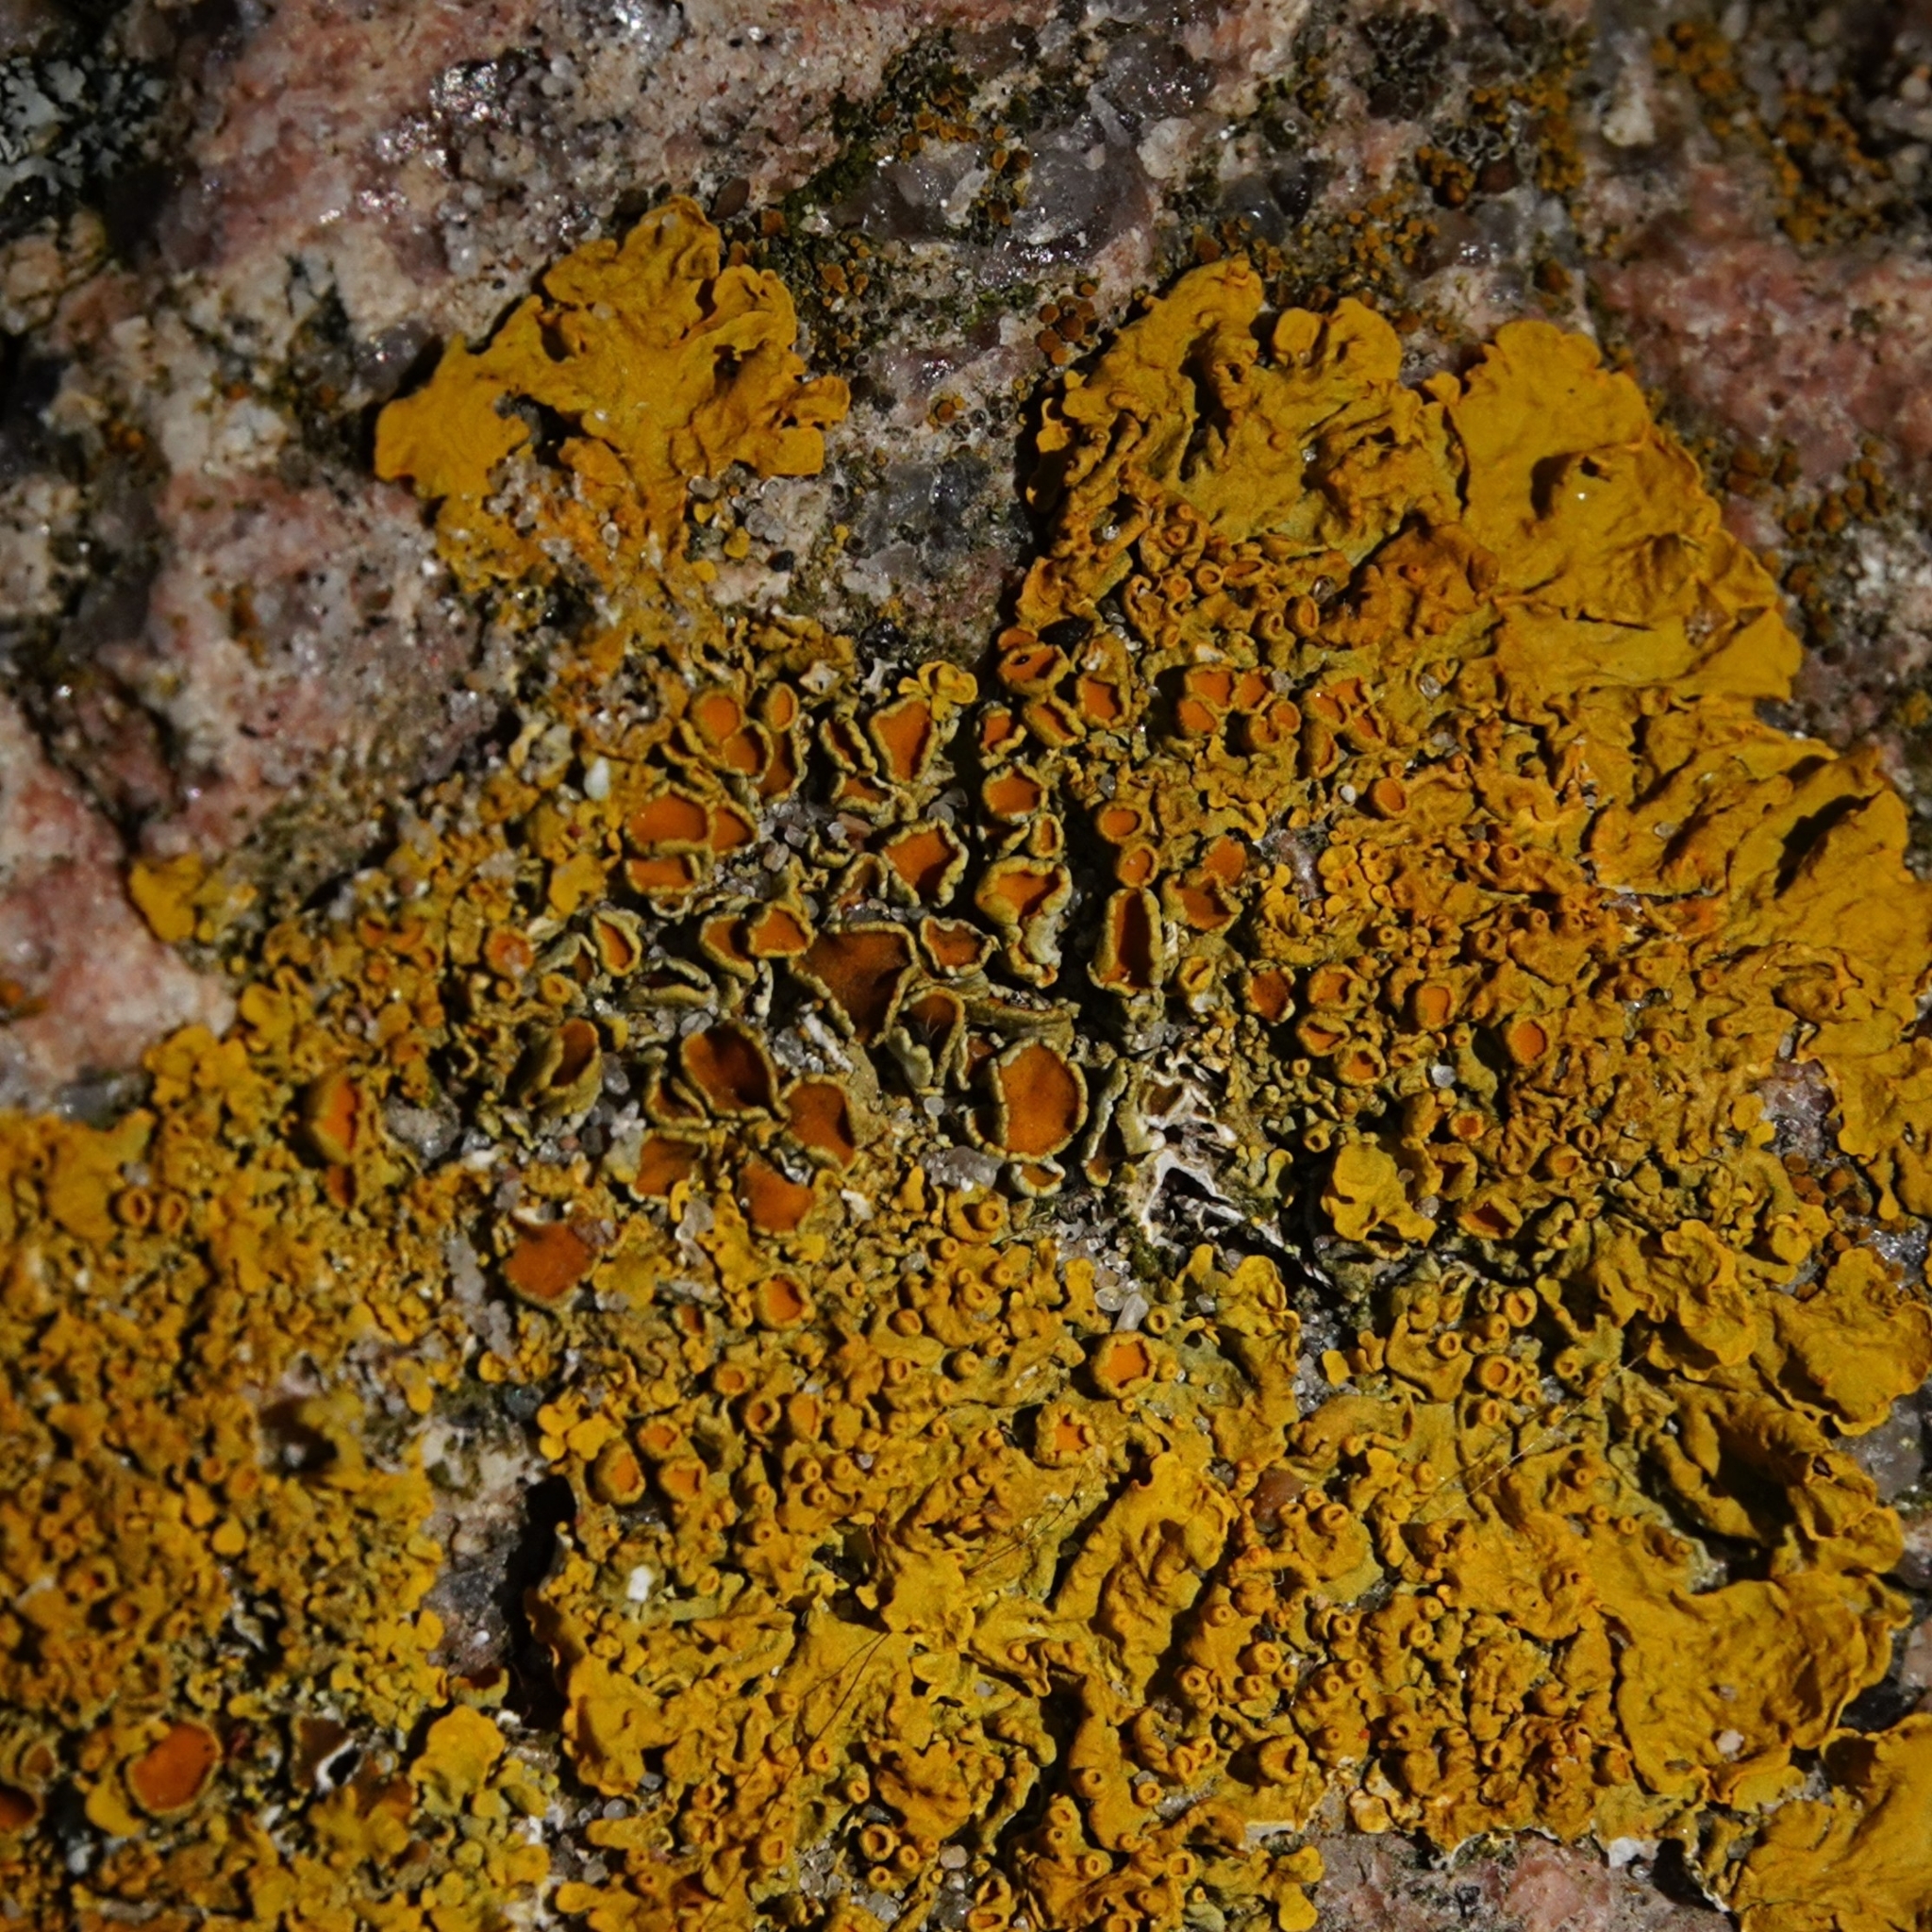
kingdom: Fungi
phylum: Ascomycota
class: Lecanoromycetes
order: Teloschistales
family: Teloschistaceae
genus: Xanthoria
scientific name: Xanthoria parietina
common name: Common orange lichen
